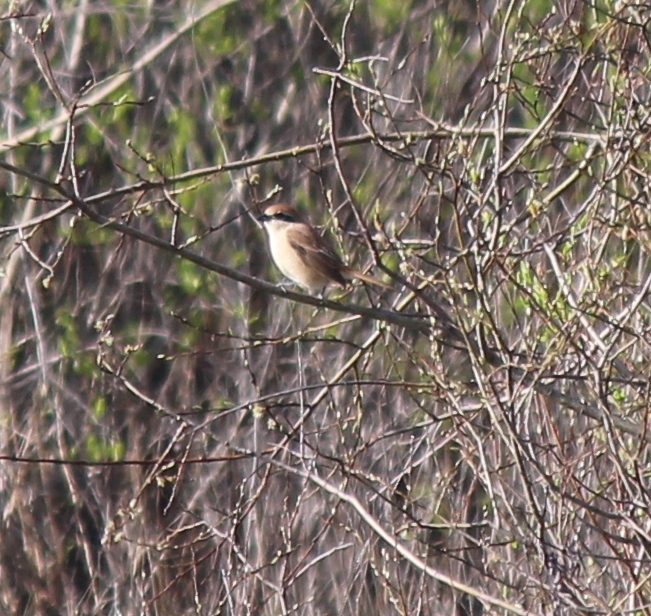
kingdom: Animalia
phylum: Chordata
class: Aves
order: Passeriformes
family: Laniidae
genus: Lanius
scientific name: Lanius cristatus
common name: Brown shrike
